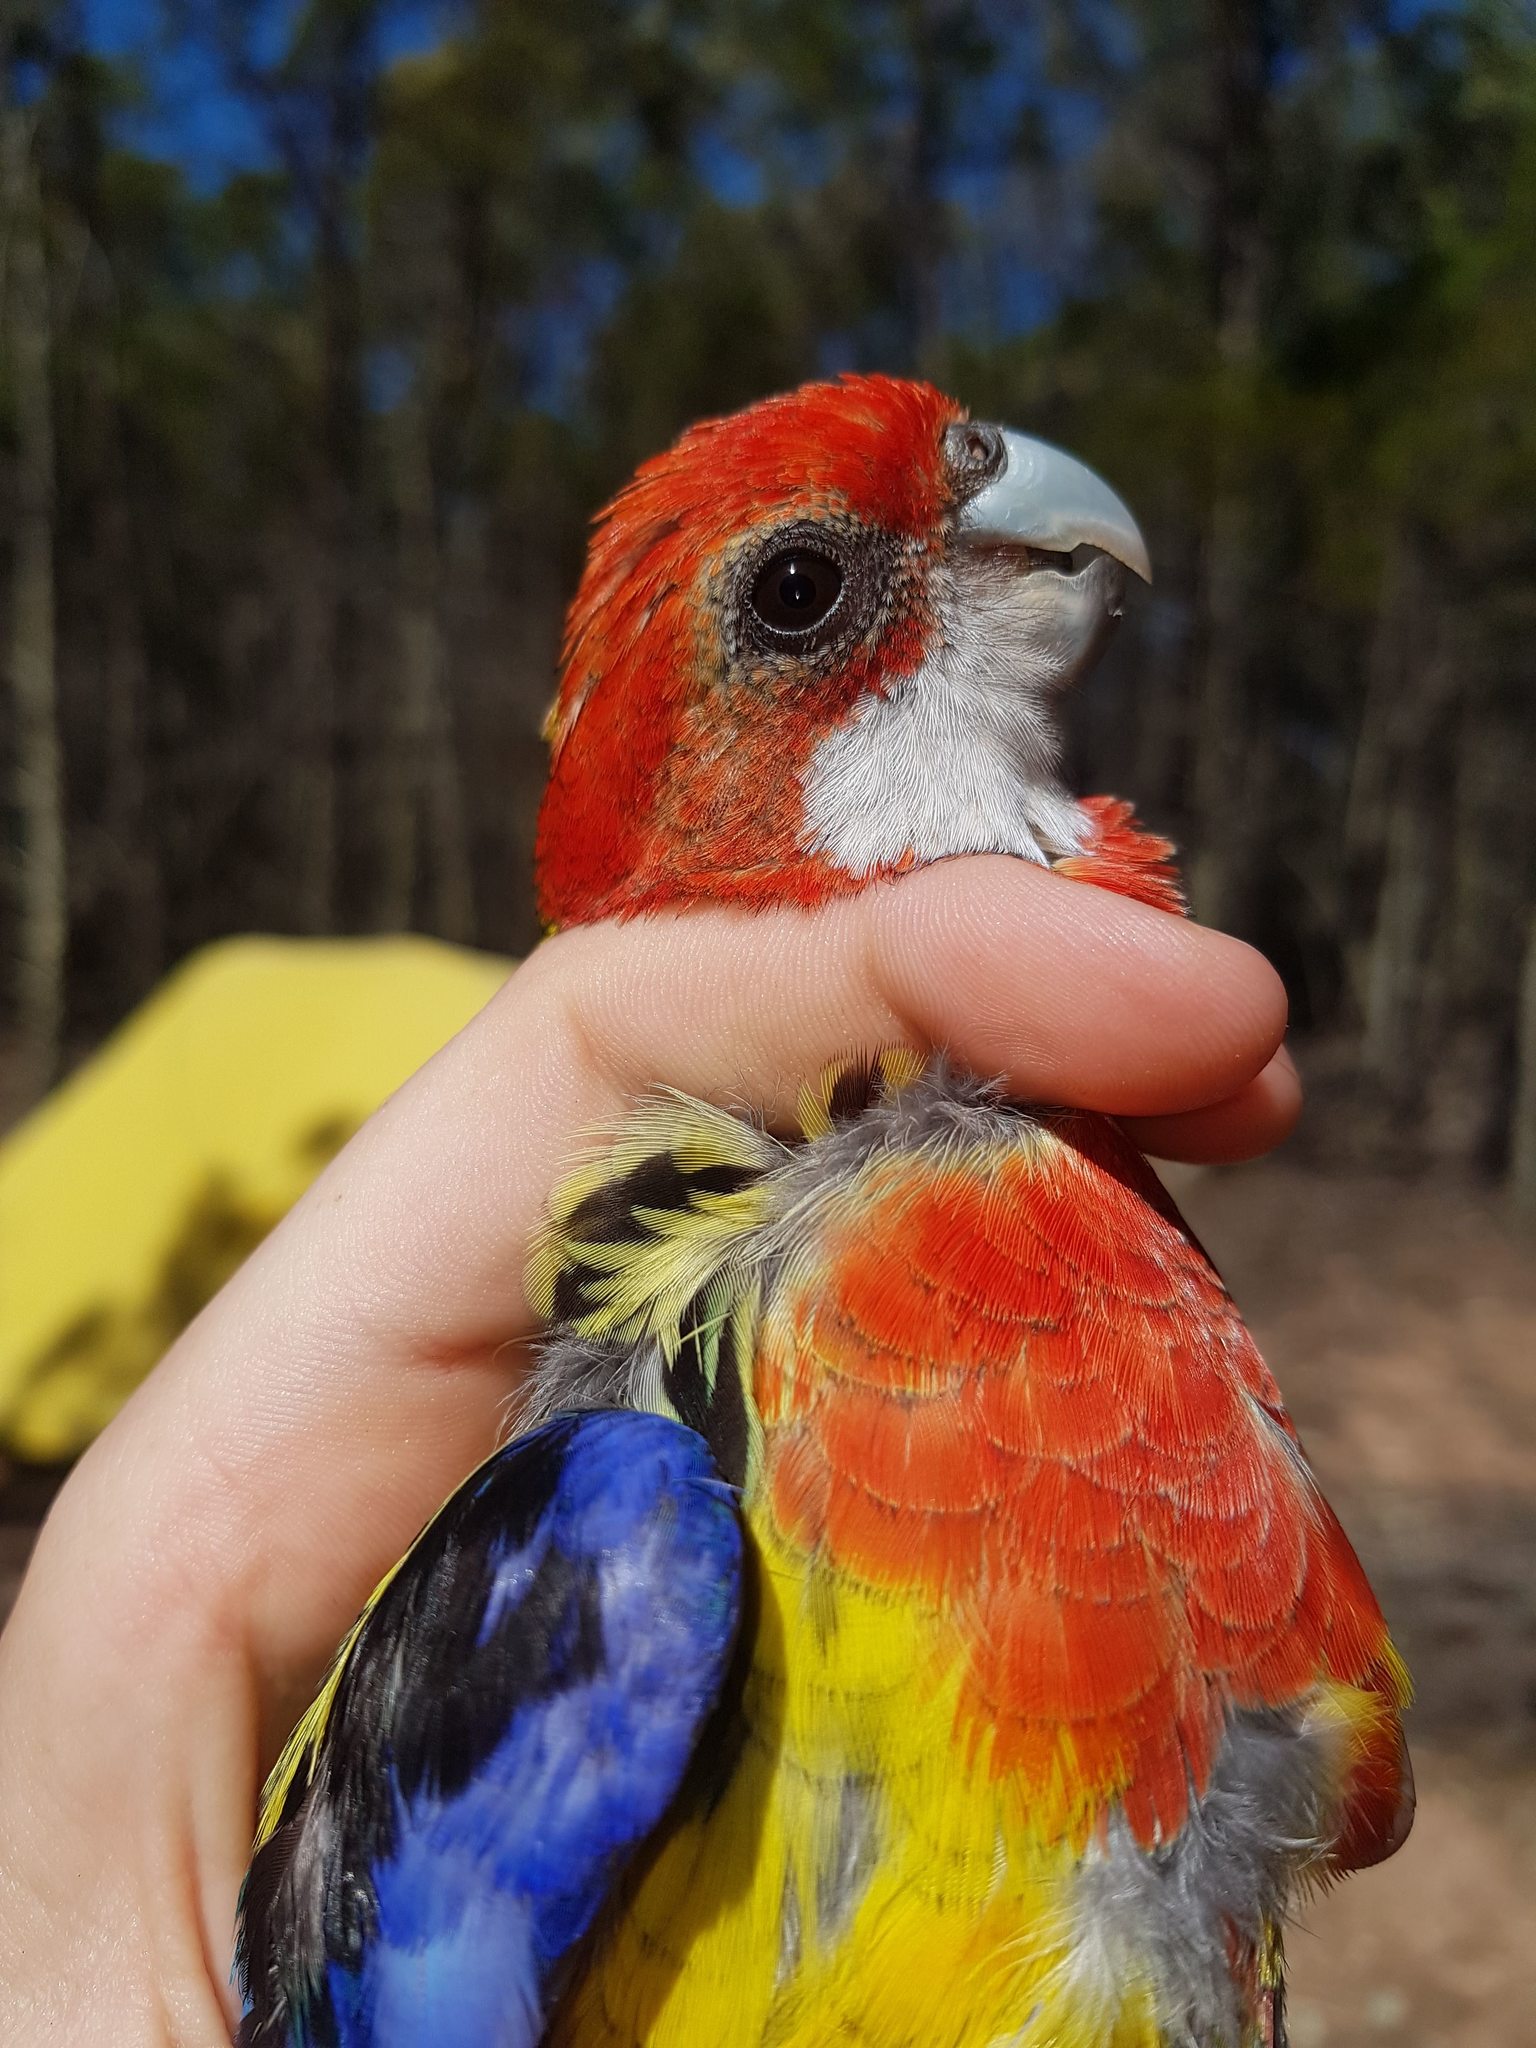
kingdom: Animalia
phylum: Chordata
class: Aves
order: Psittaciformes
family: Psittacidae
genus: Platycercus
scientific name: Platycercus eximius
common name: Eastern rosella
